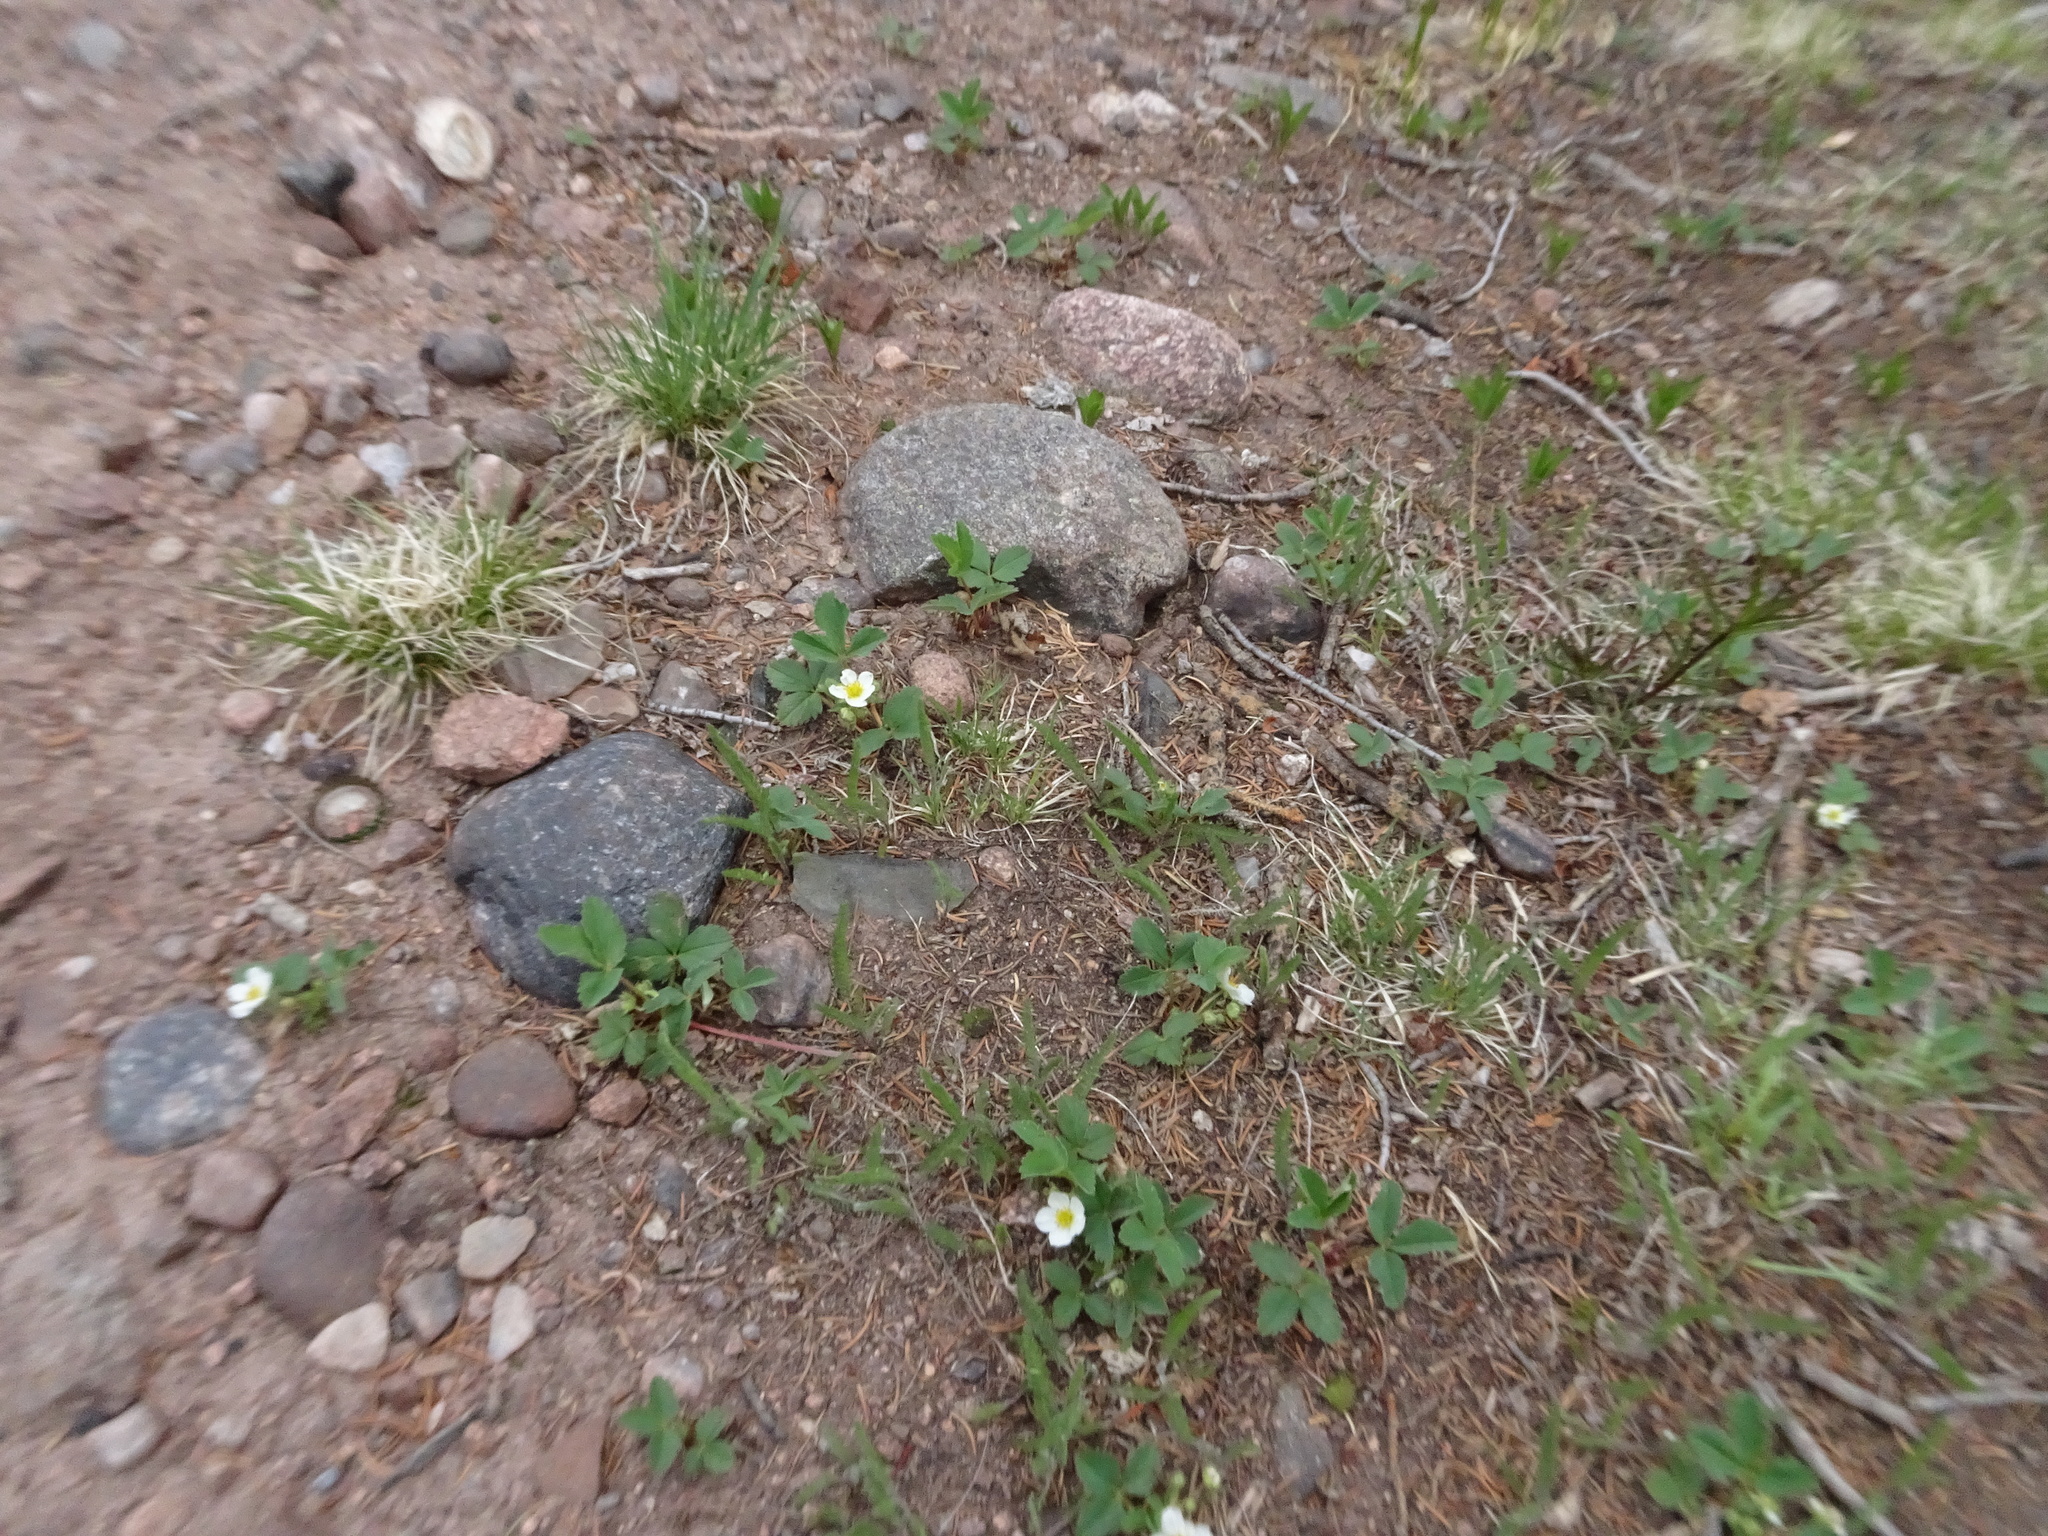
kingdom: Plantae
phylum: Tracheophyta
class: Magnoliopsida
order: Rosales
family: Rosaceae
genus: Fragaria
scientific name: Fragaria vesca
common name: Wild strawberry
